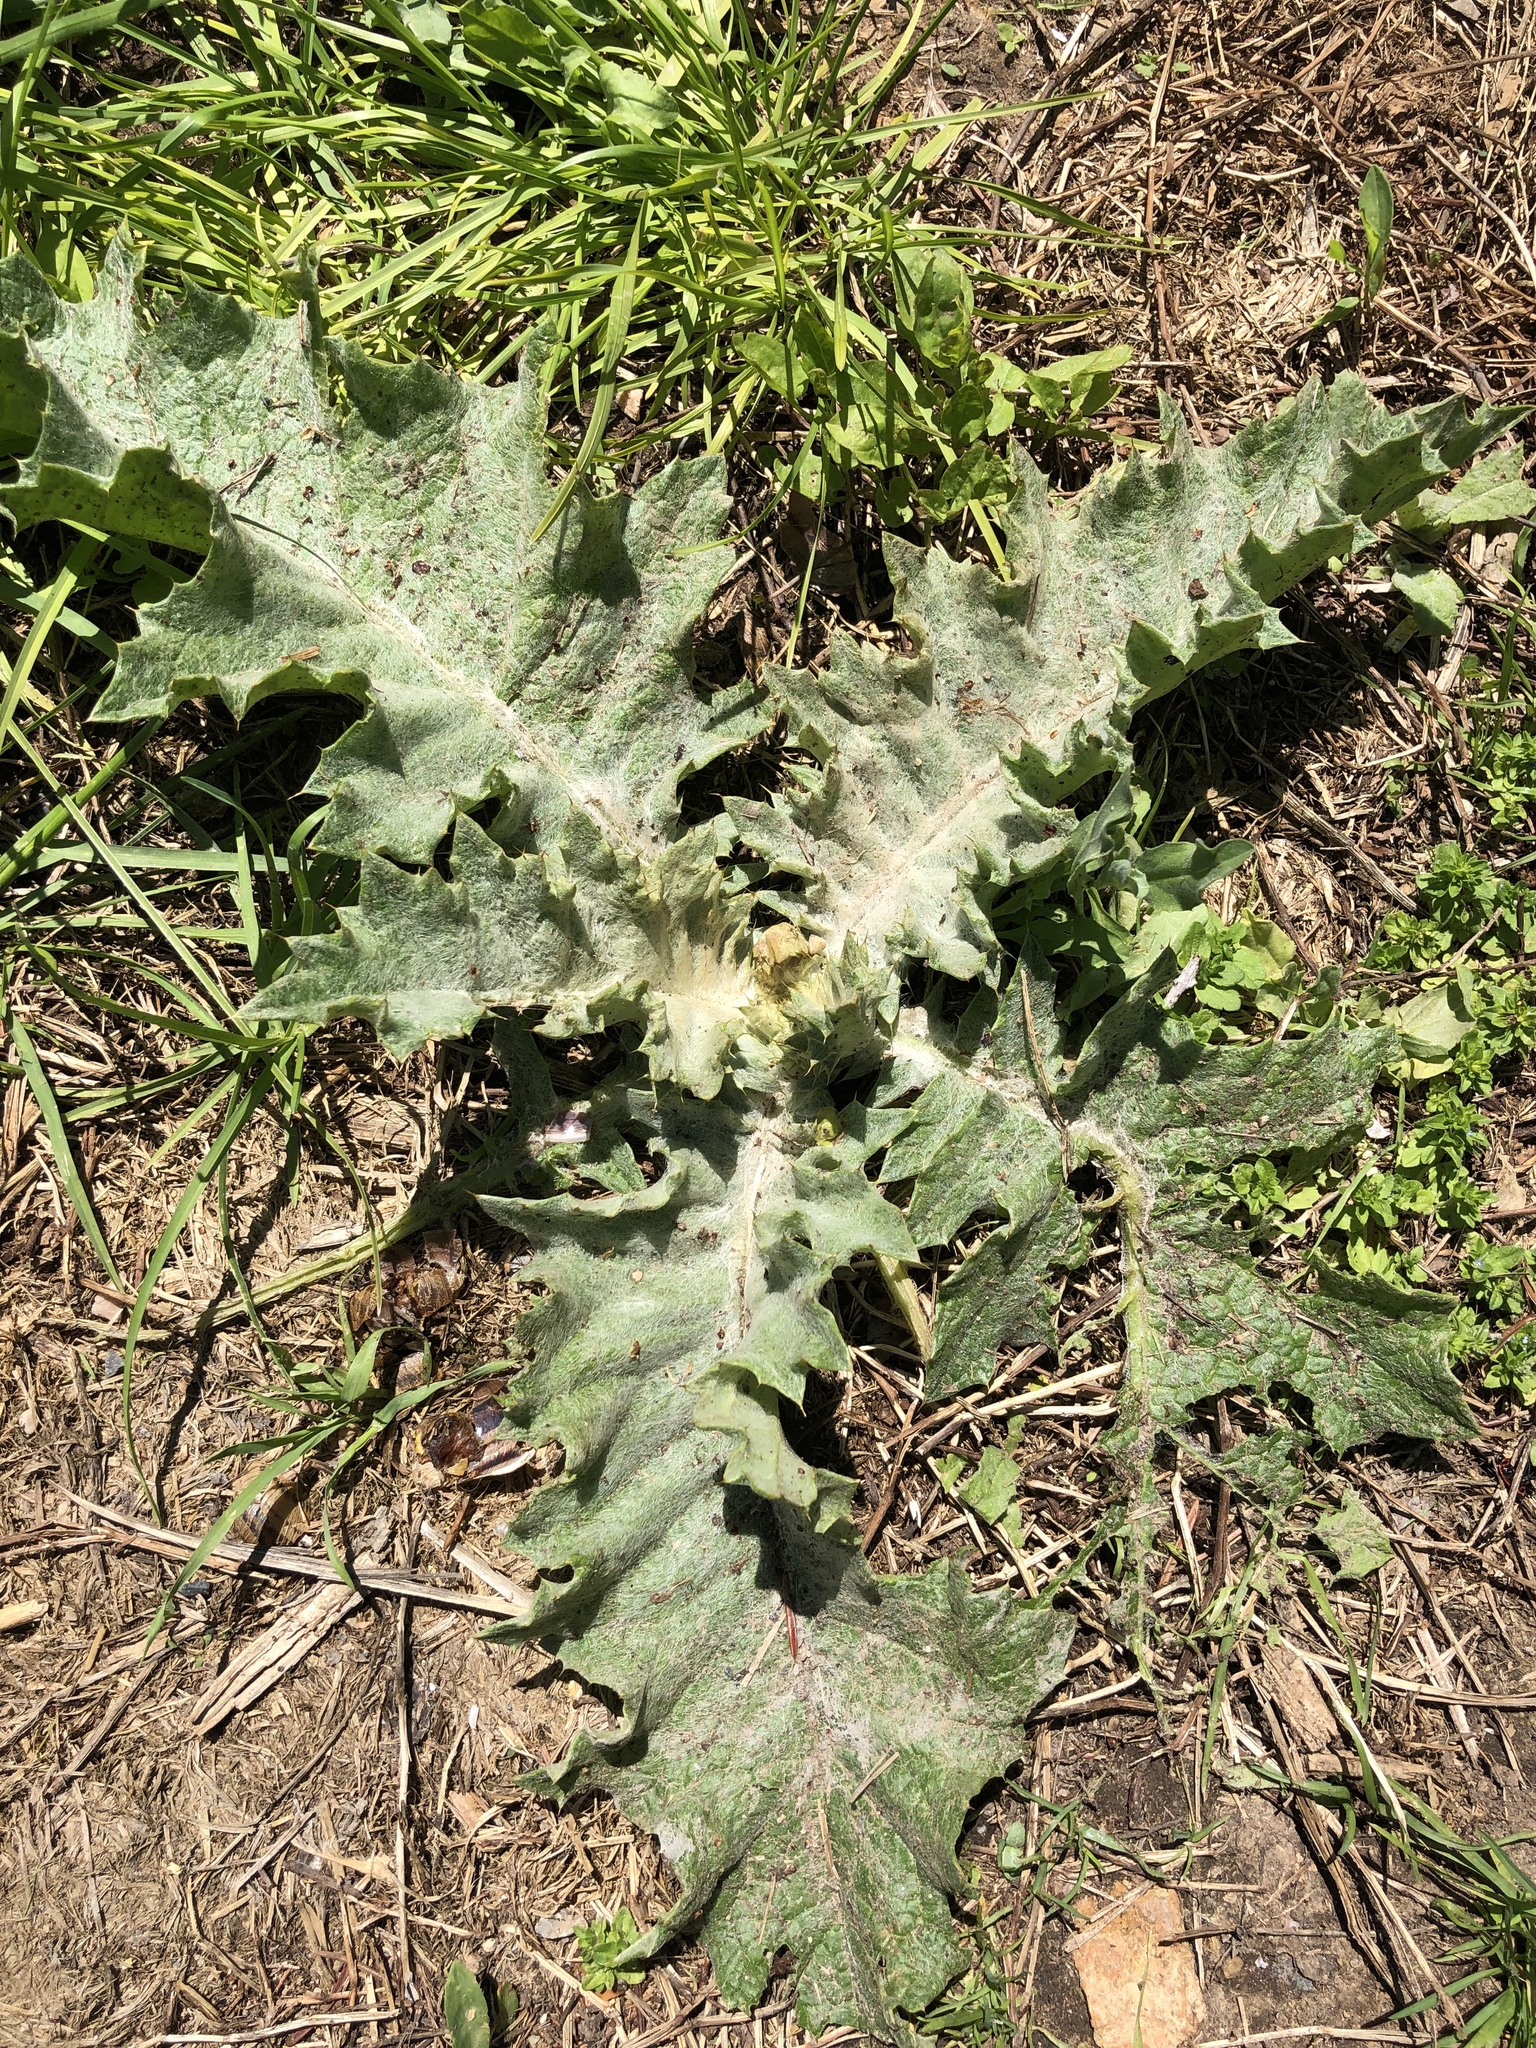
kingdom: Plantae
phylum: Tracheophyta
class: Magnoliopsida
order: Asterales
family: Asteraceae
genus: Onopordum
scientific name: Onopordum acanthium
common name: Scotch thistle
